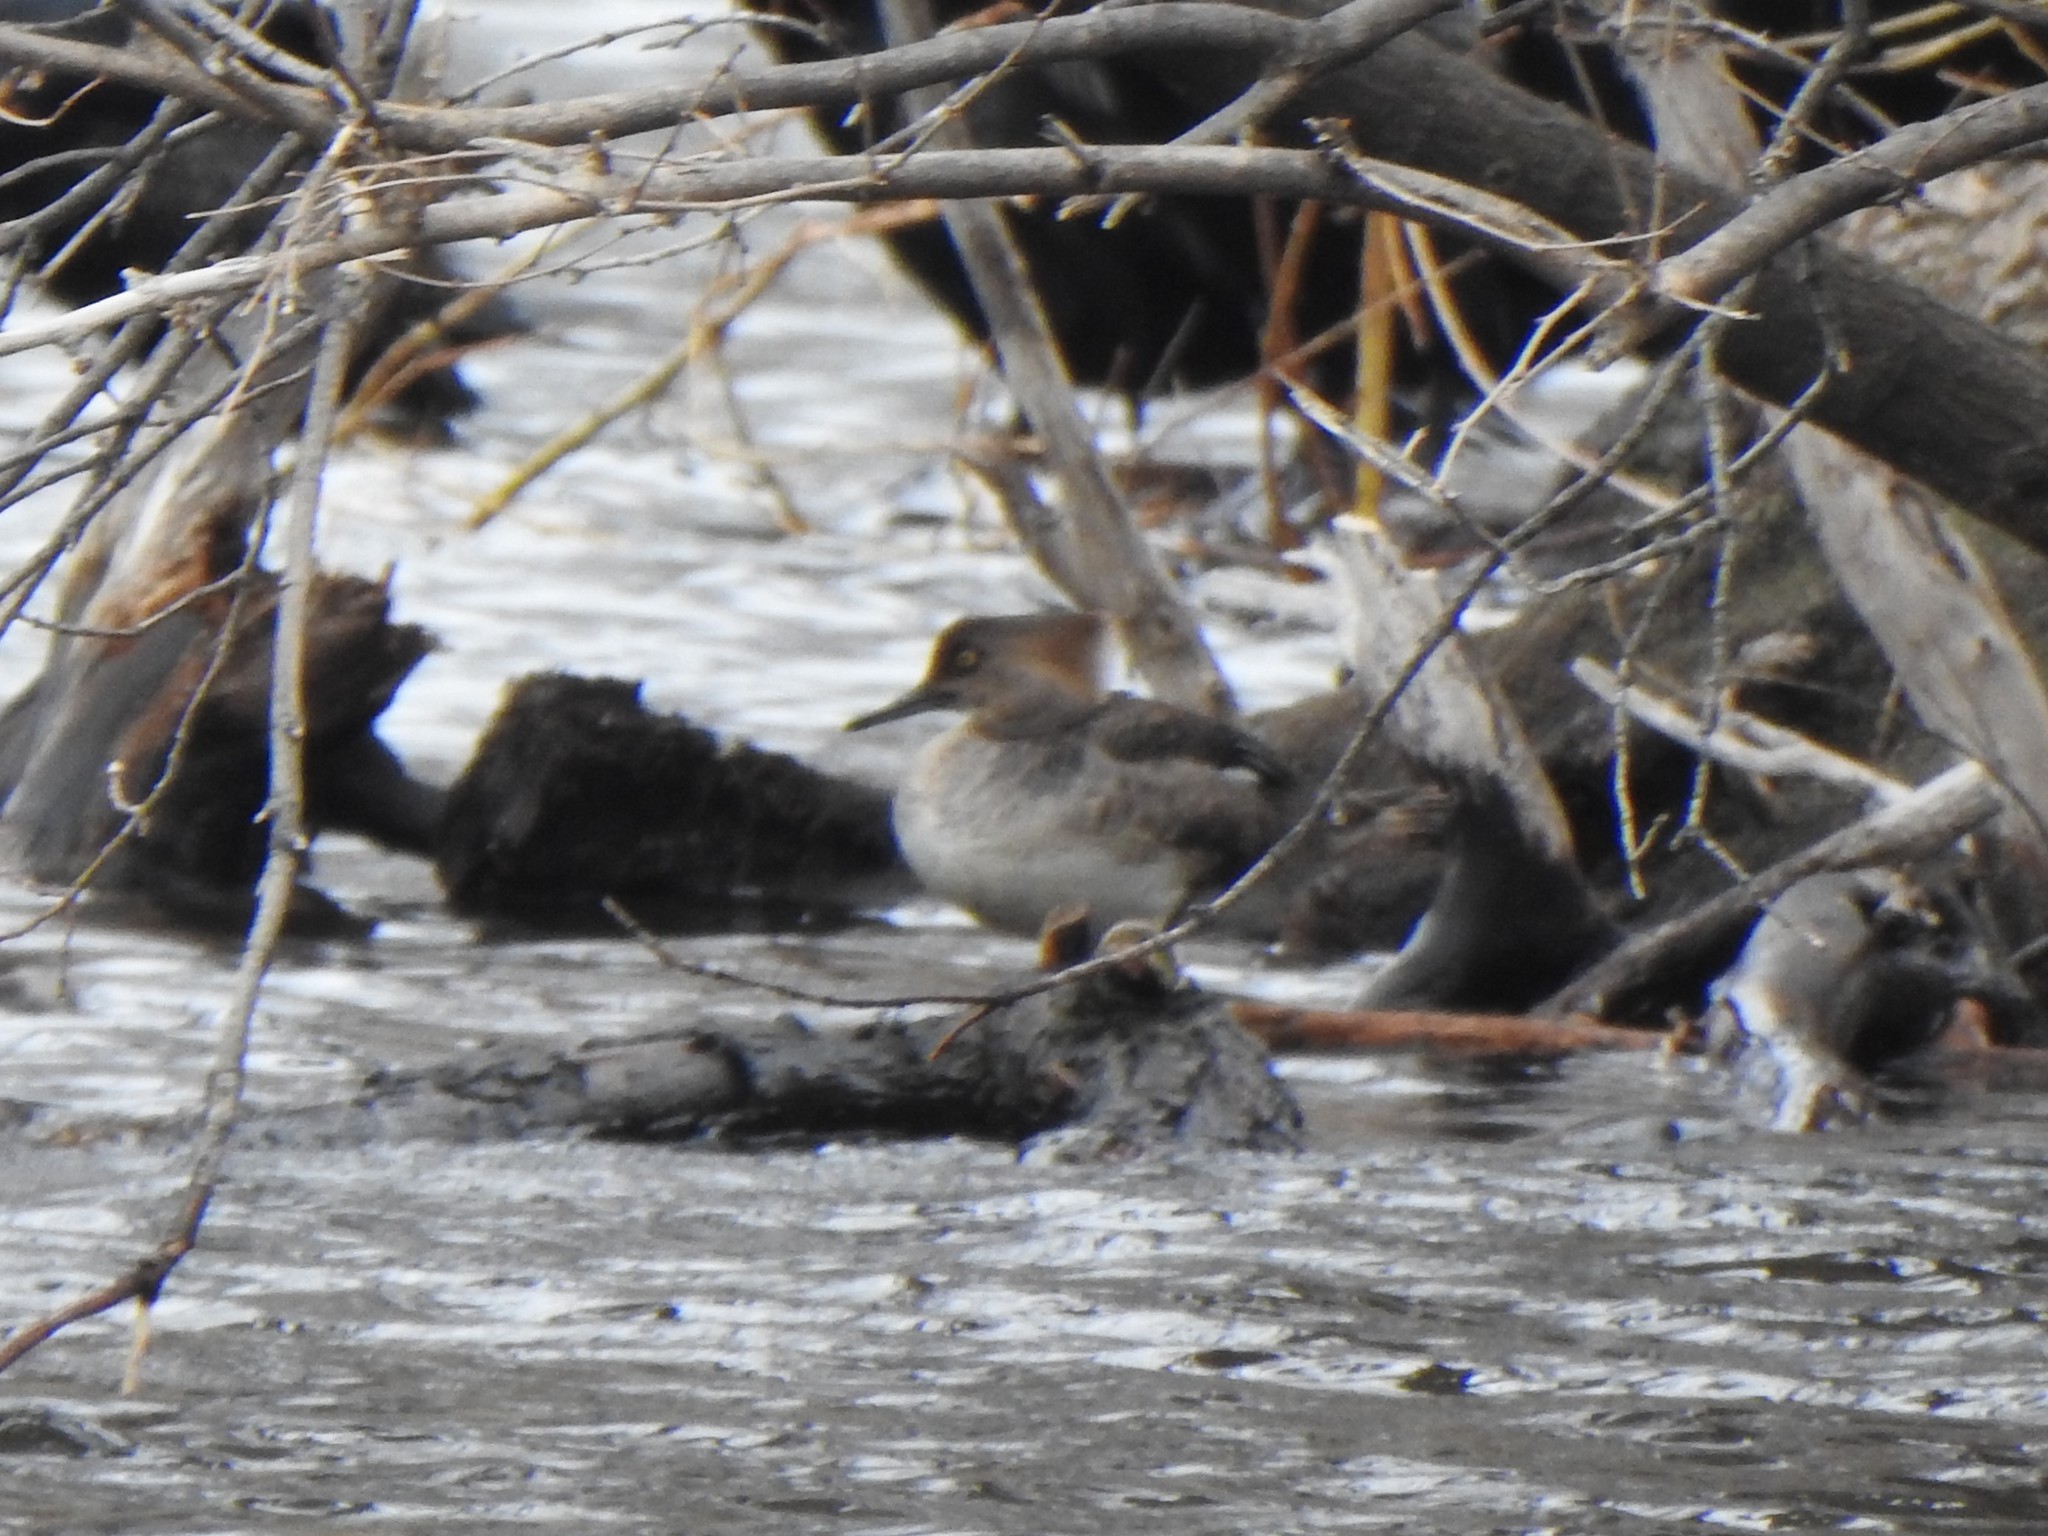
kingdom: Animalia
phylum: Chordata
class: Aves
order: Anseriformes
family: Anatidae
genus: Lophodytes
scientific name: Lophodytes cucullatus
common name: Hooded merganser
